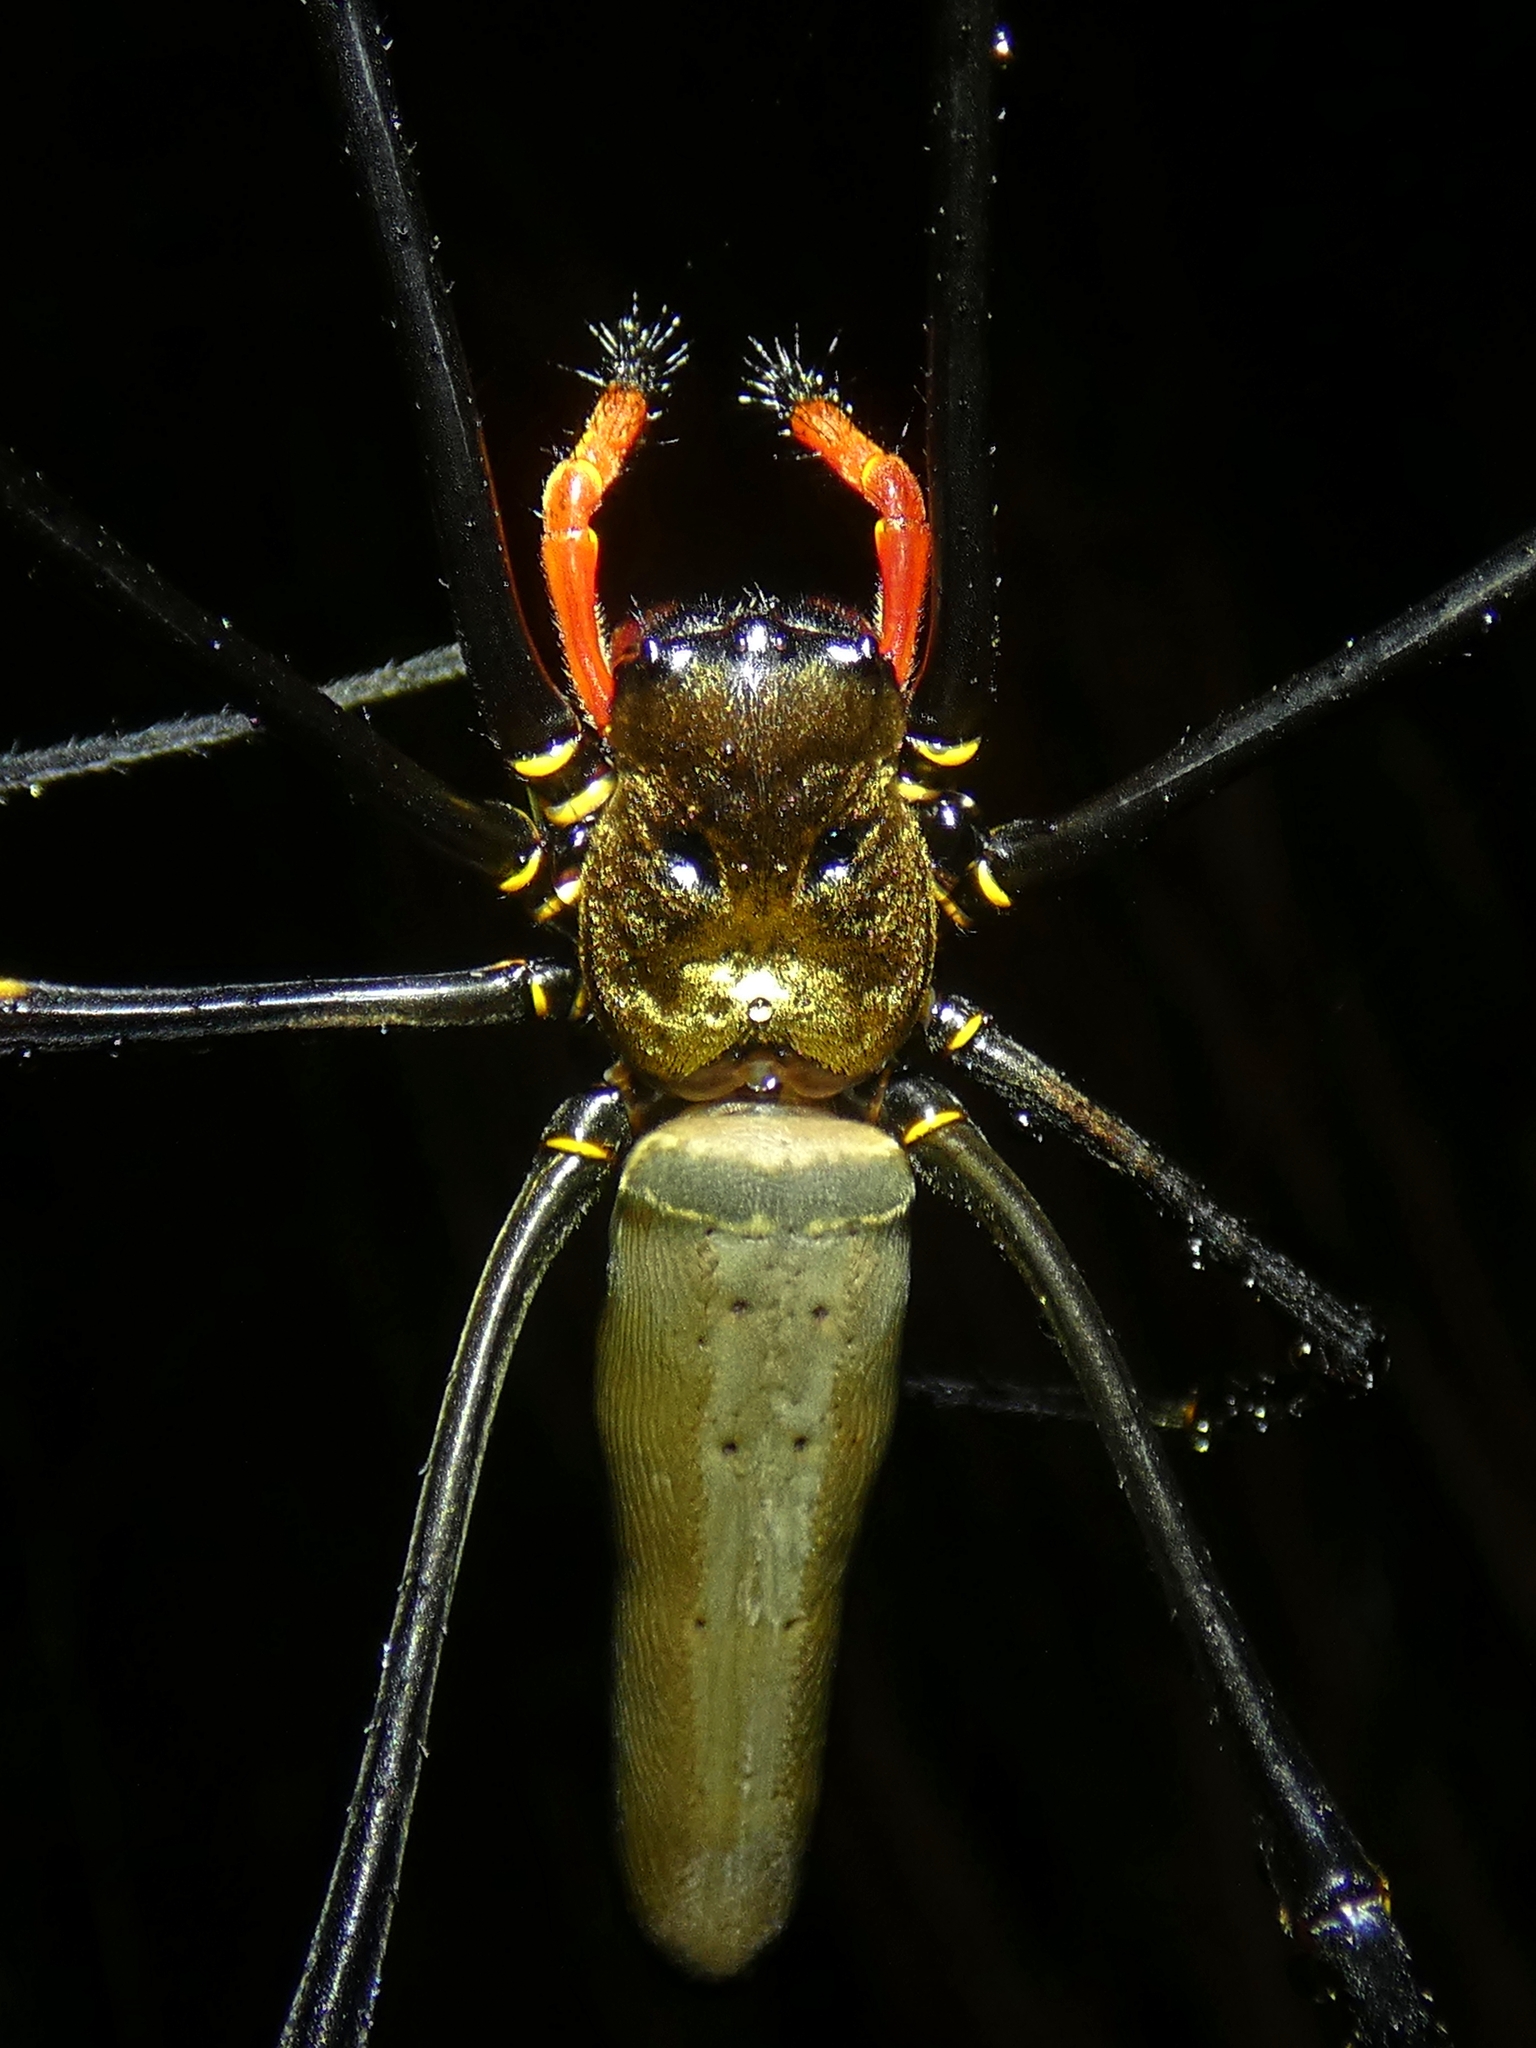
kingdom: Animalia
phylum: Arthropoda
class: Arachnida
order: Araneae
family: Araneidae
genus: Nephila
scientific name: Nephila pilipes
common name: Giant golden orb weaver
